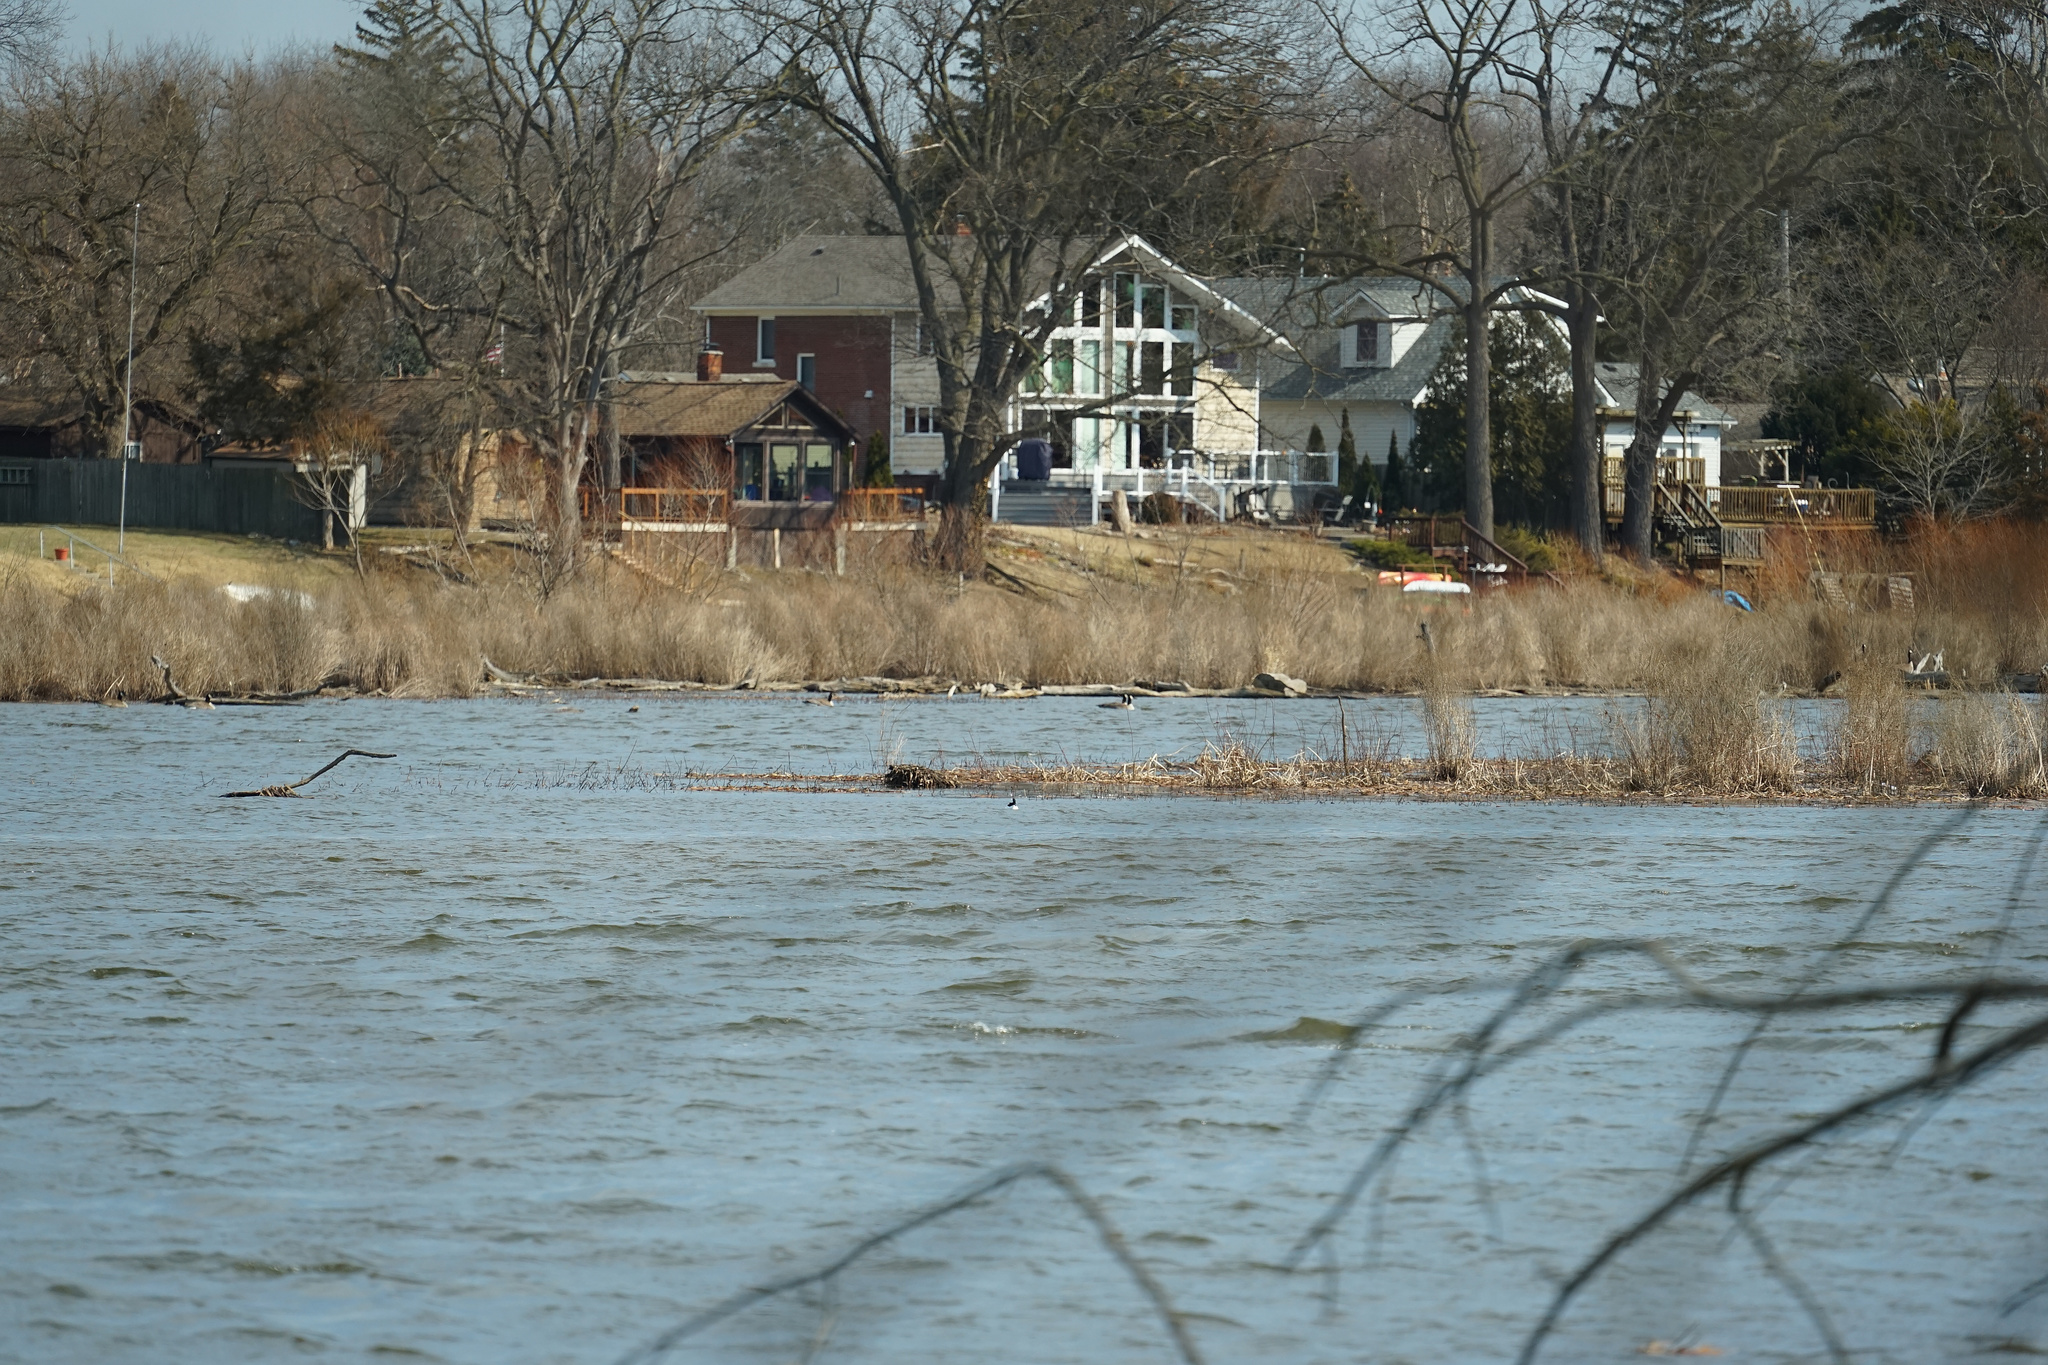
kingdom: Animalia
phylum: Chordata
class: Aves
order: Anseriformes
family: Anatidae
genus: Bucephala
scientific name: Bucephala albeola
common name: Bufflehead
